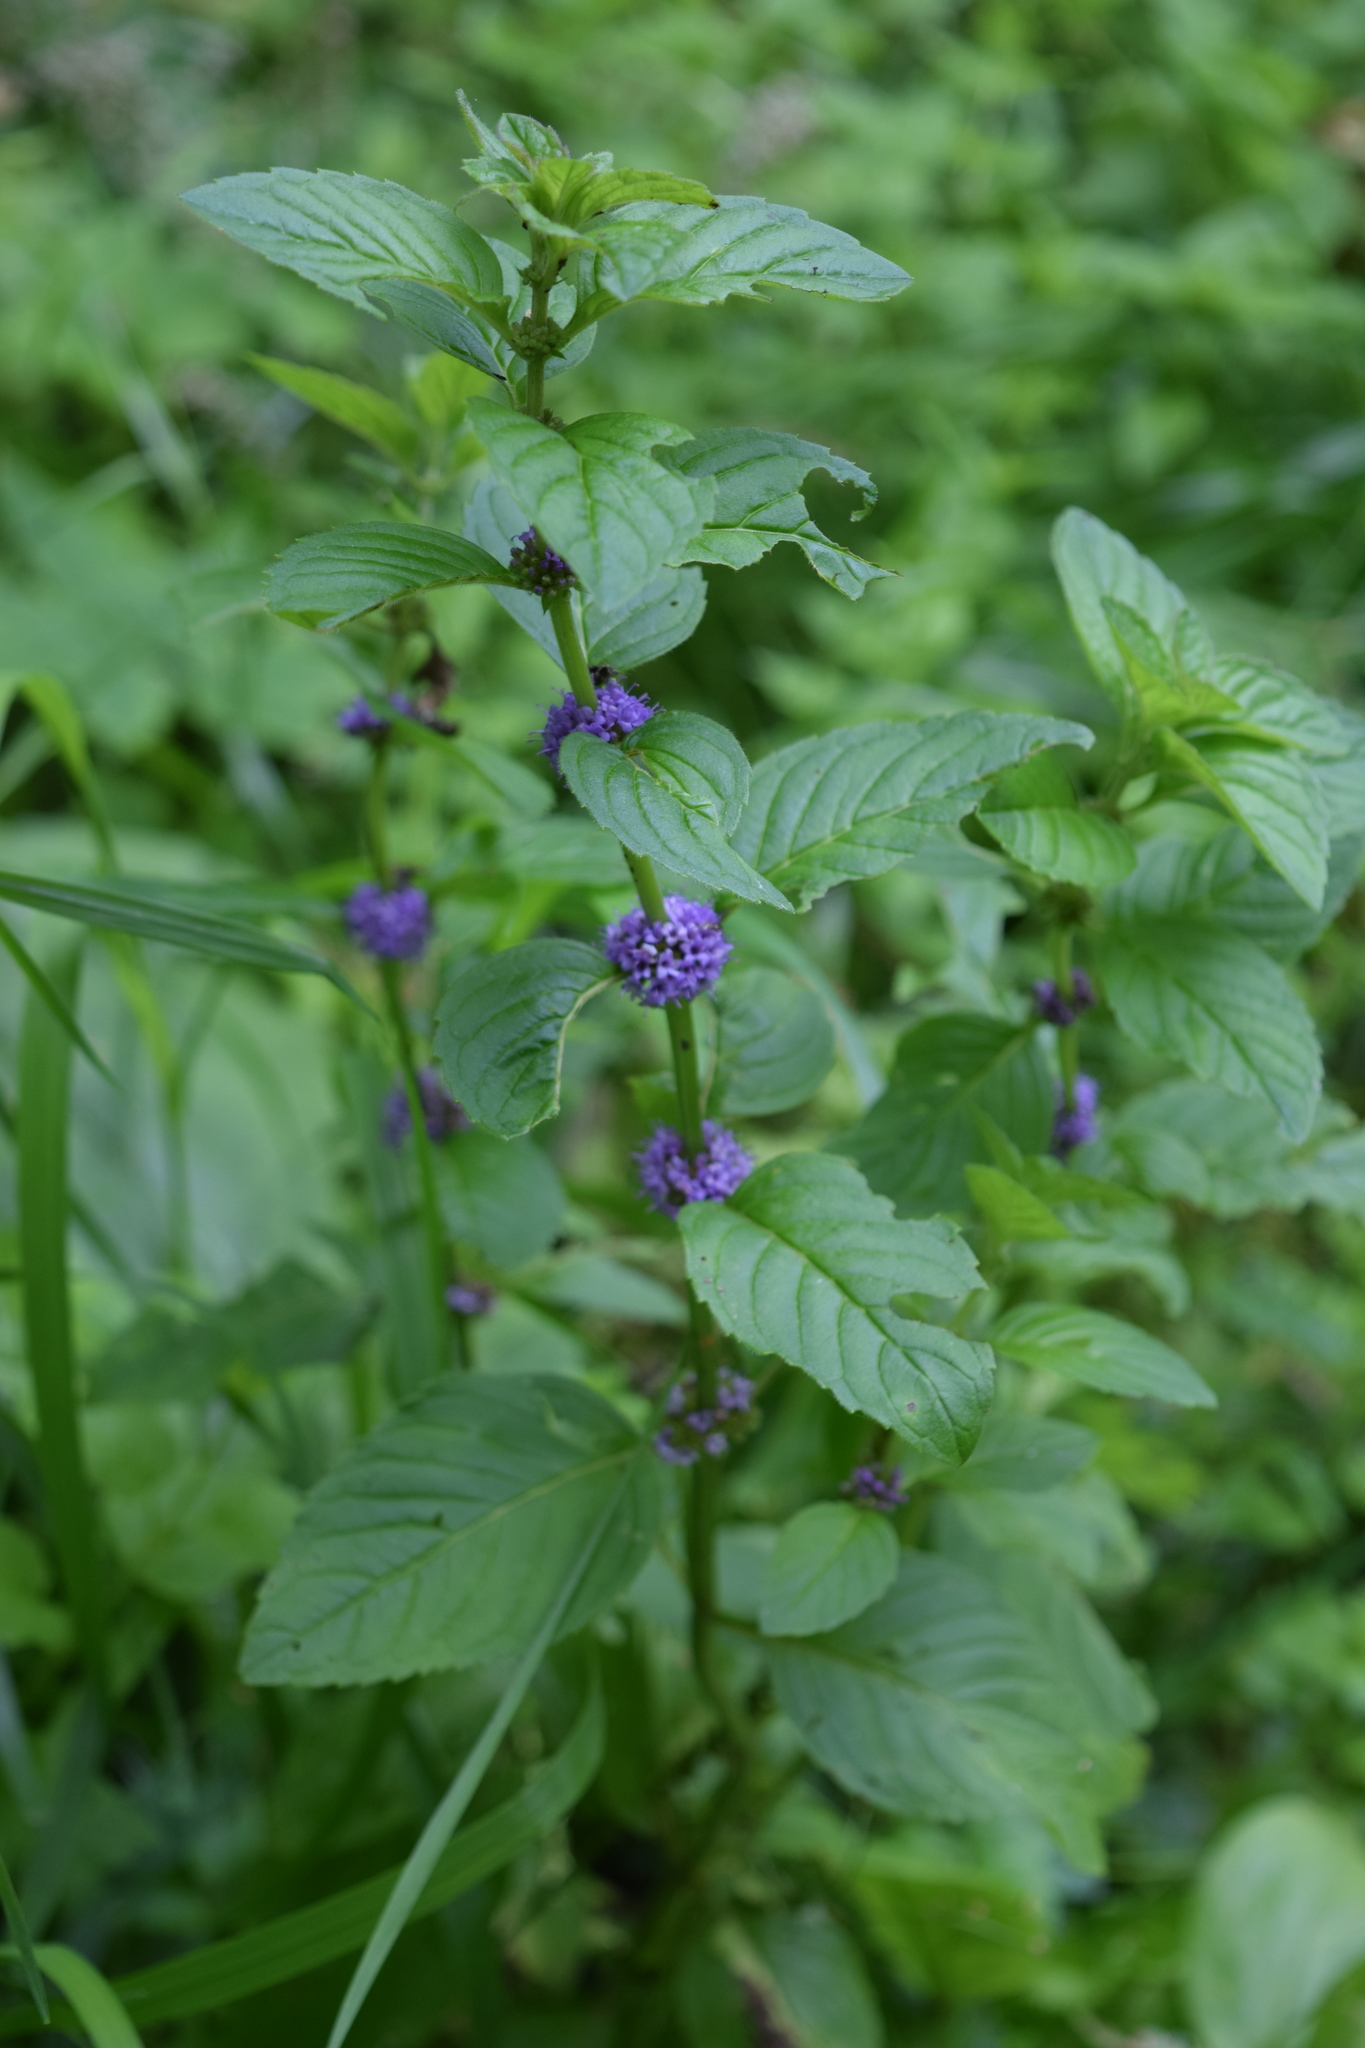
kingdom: Plantae
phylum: Tracheophyta
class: Magnoliopsida
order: Lamiales
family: Lamiaceae
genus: Mentha
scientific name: Mentha arvensis
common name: Corn mint
